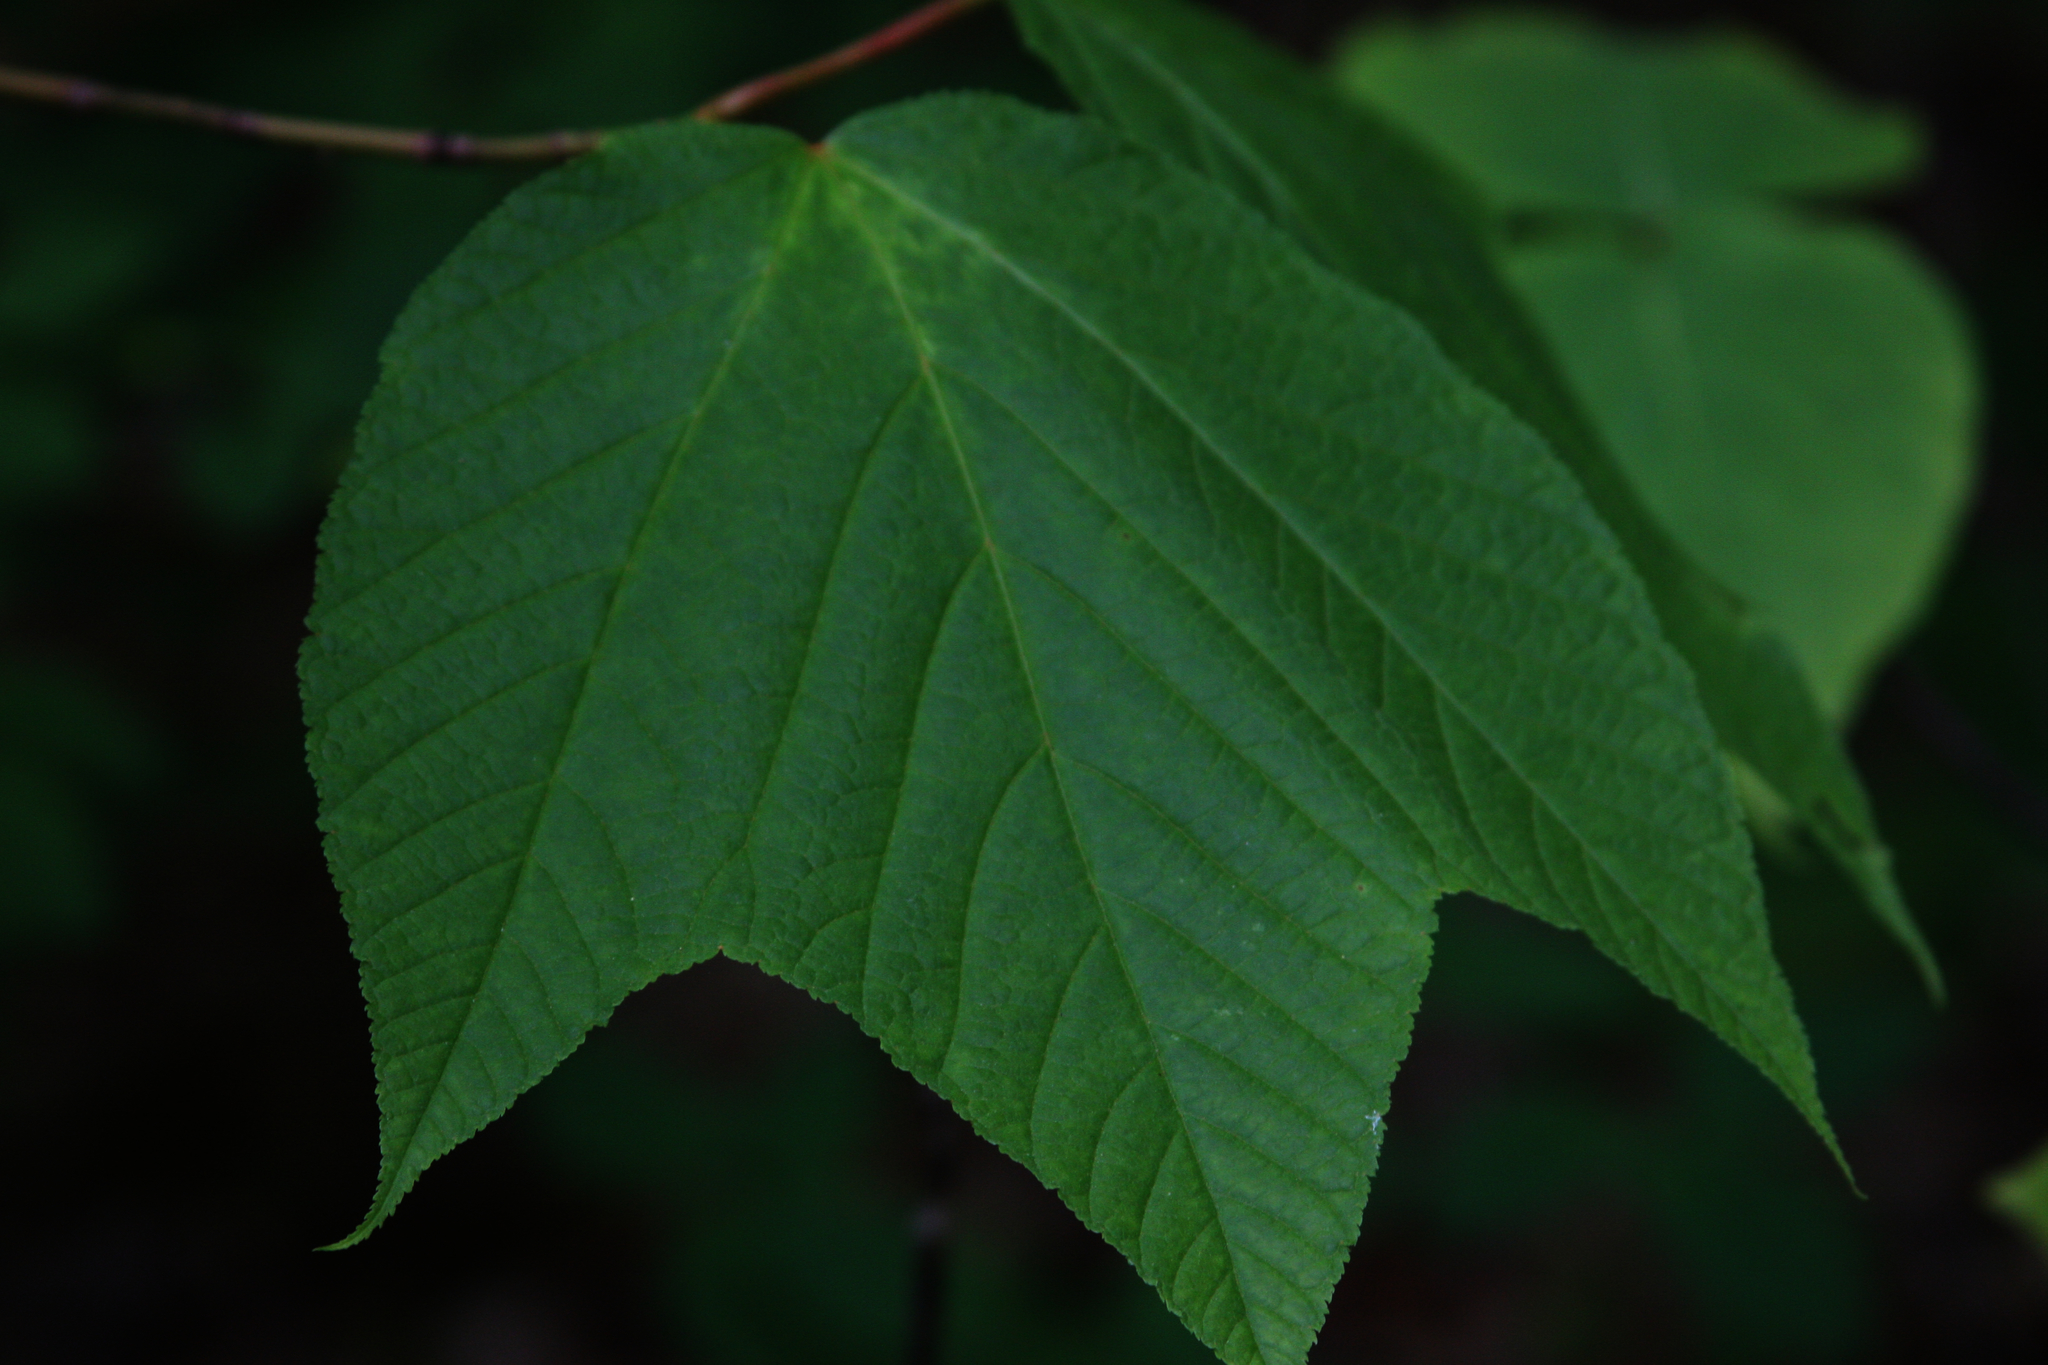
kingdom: Plantae
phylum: Tracheophyta
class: Magnoliopsida
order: Sapindales
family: Sapindaceae
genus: Acer
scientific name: Acer pensylvanicum
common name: Moosewood
